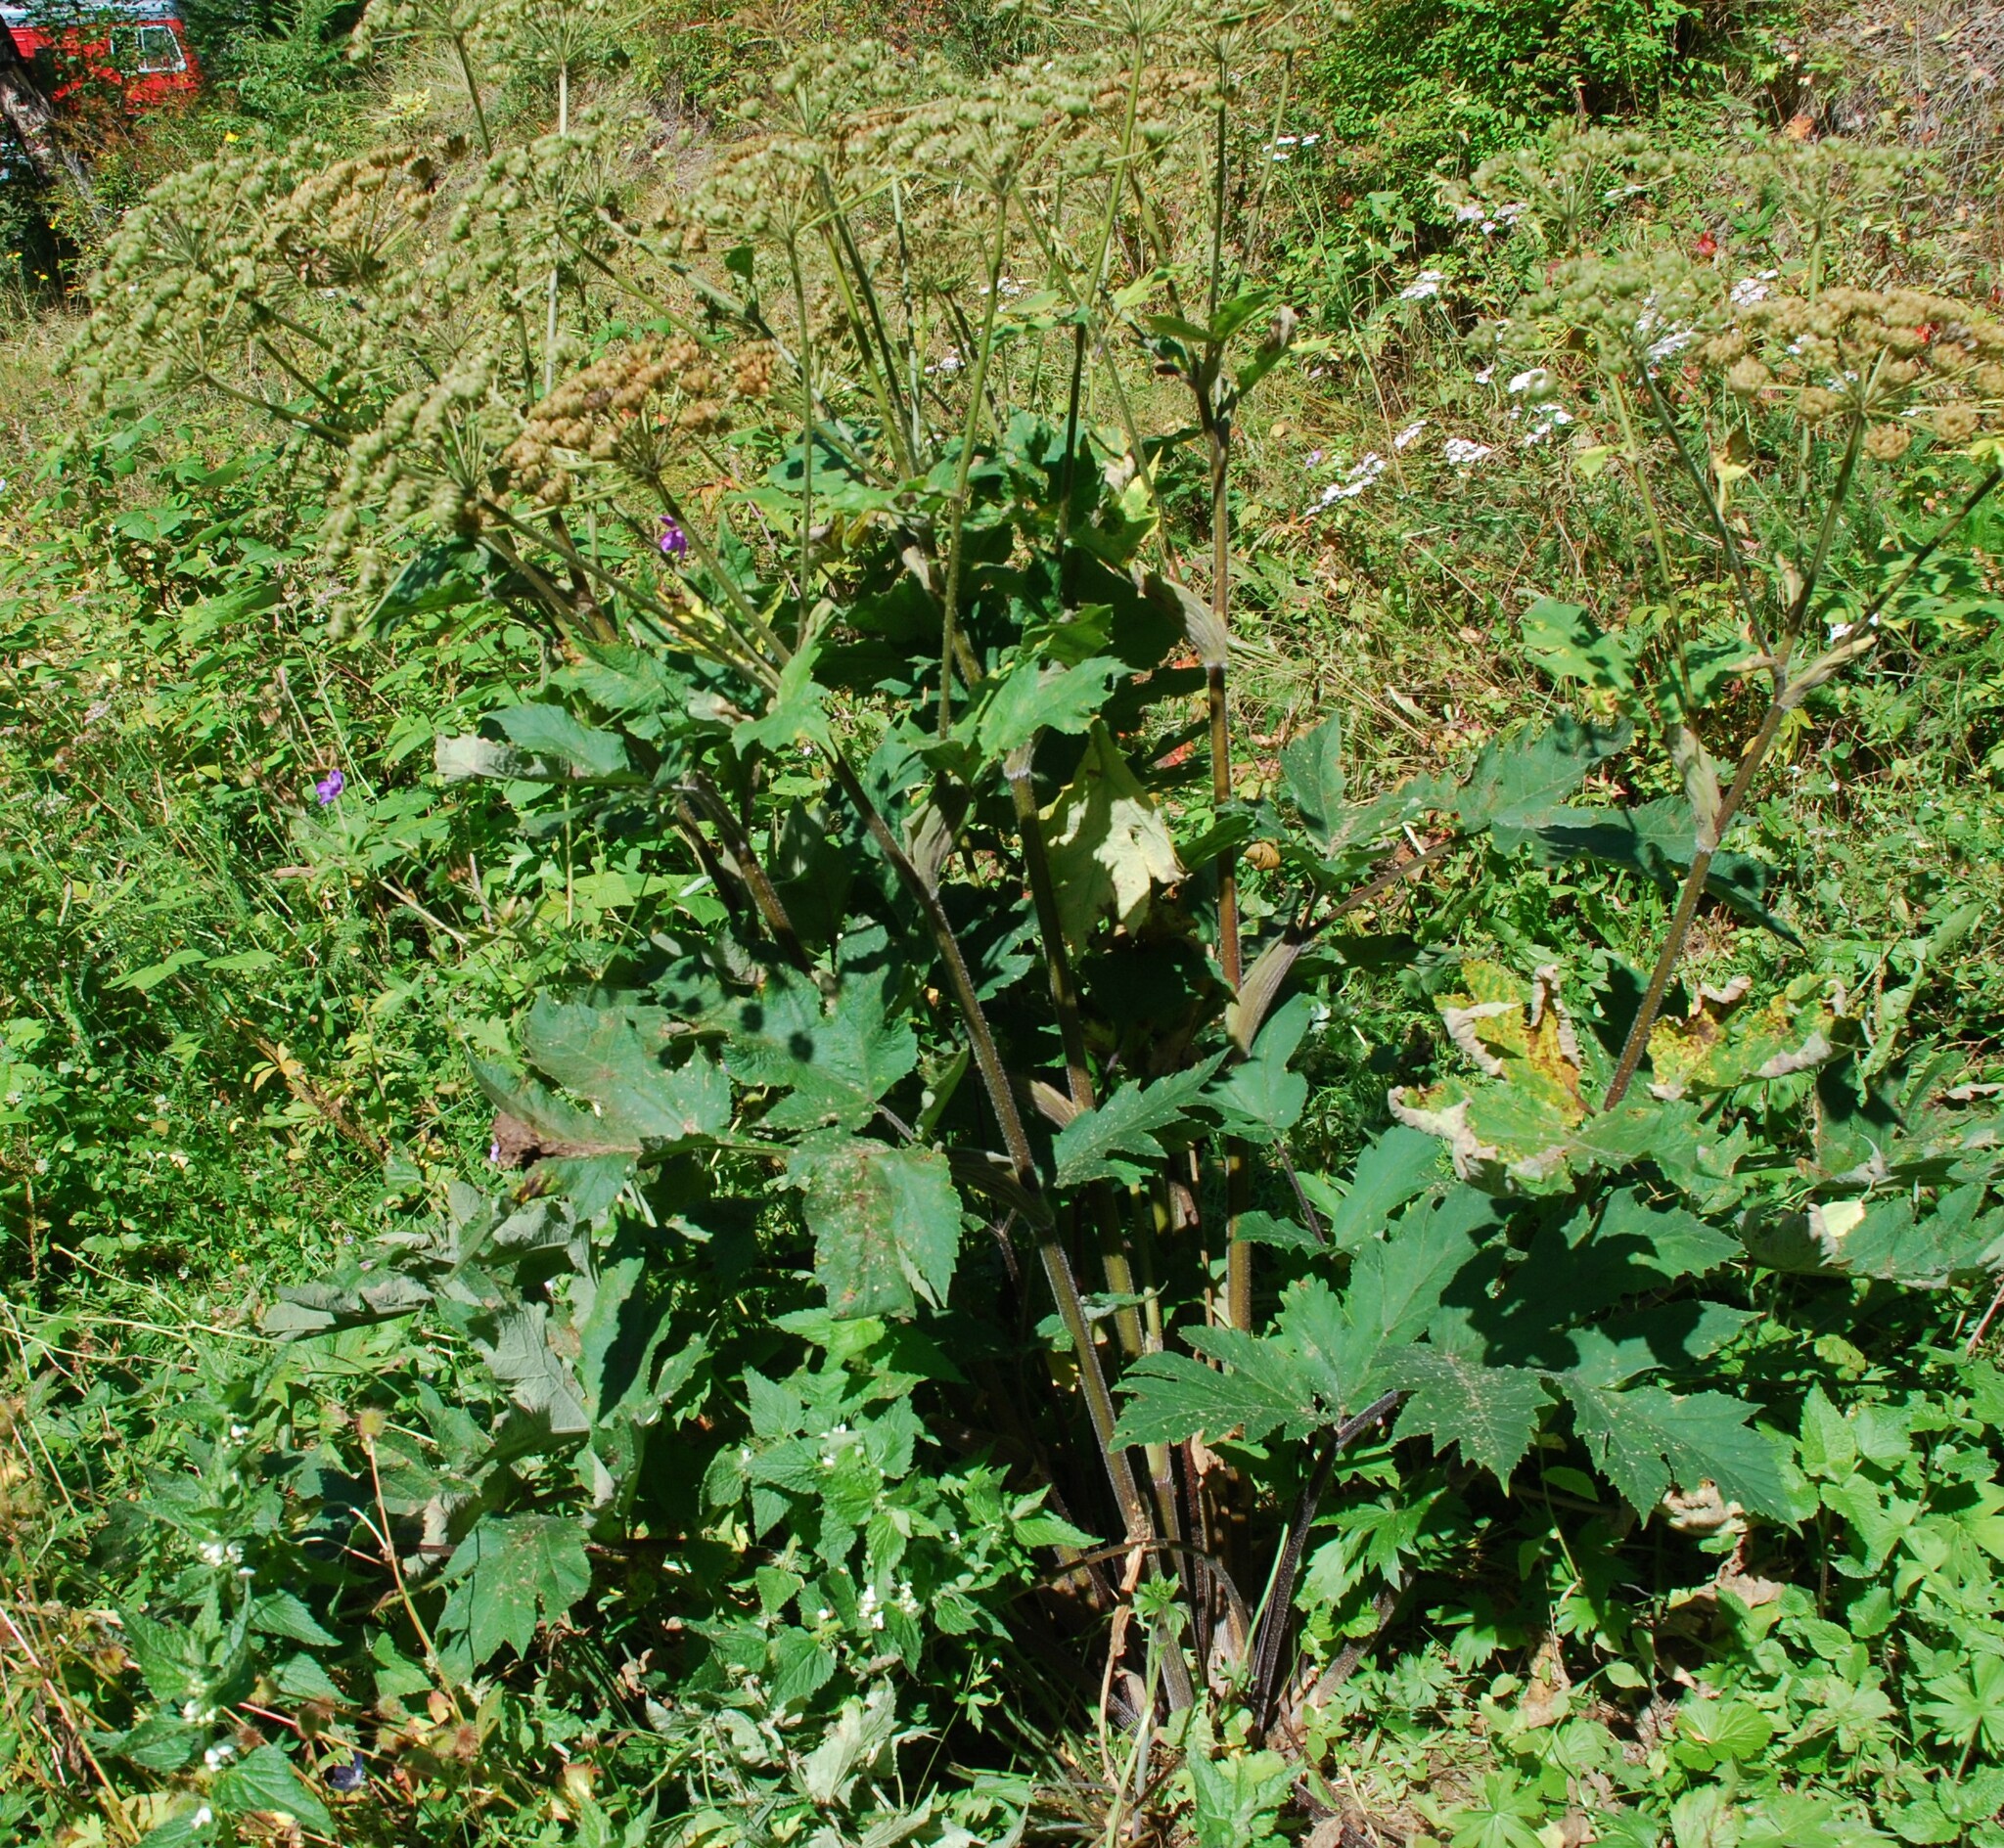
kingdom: Plantae
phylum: Tracheophyta
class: Magnoliopsida
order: Apiales
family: Apiaceae
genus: Heracleum
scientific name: Heracleum dissectum
